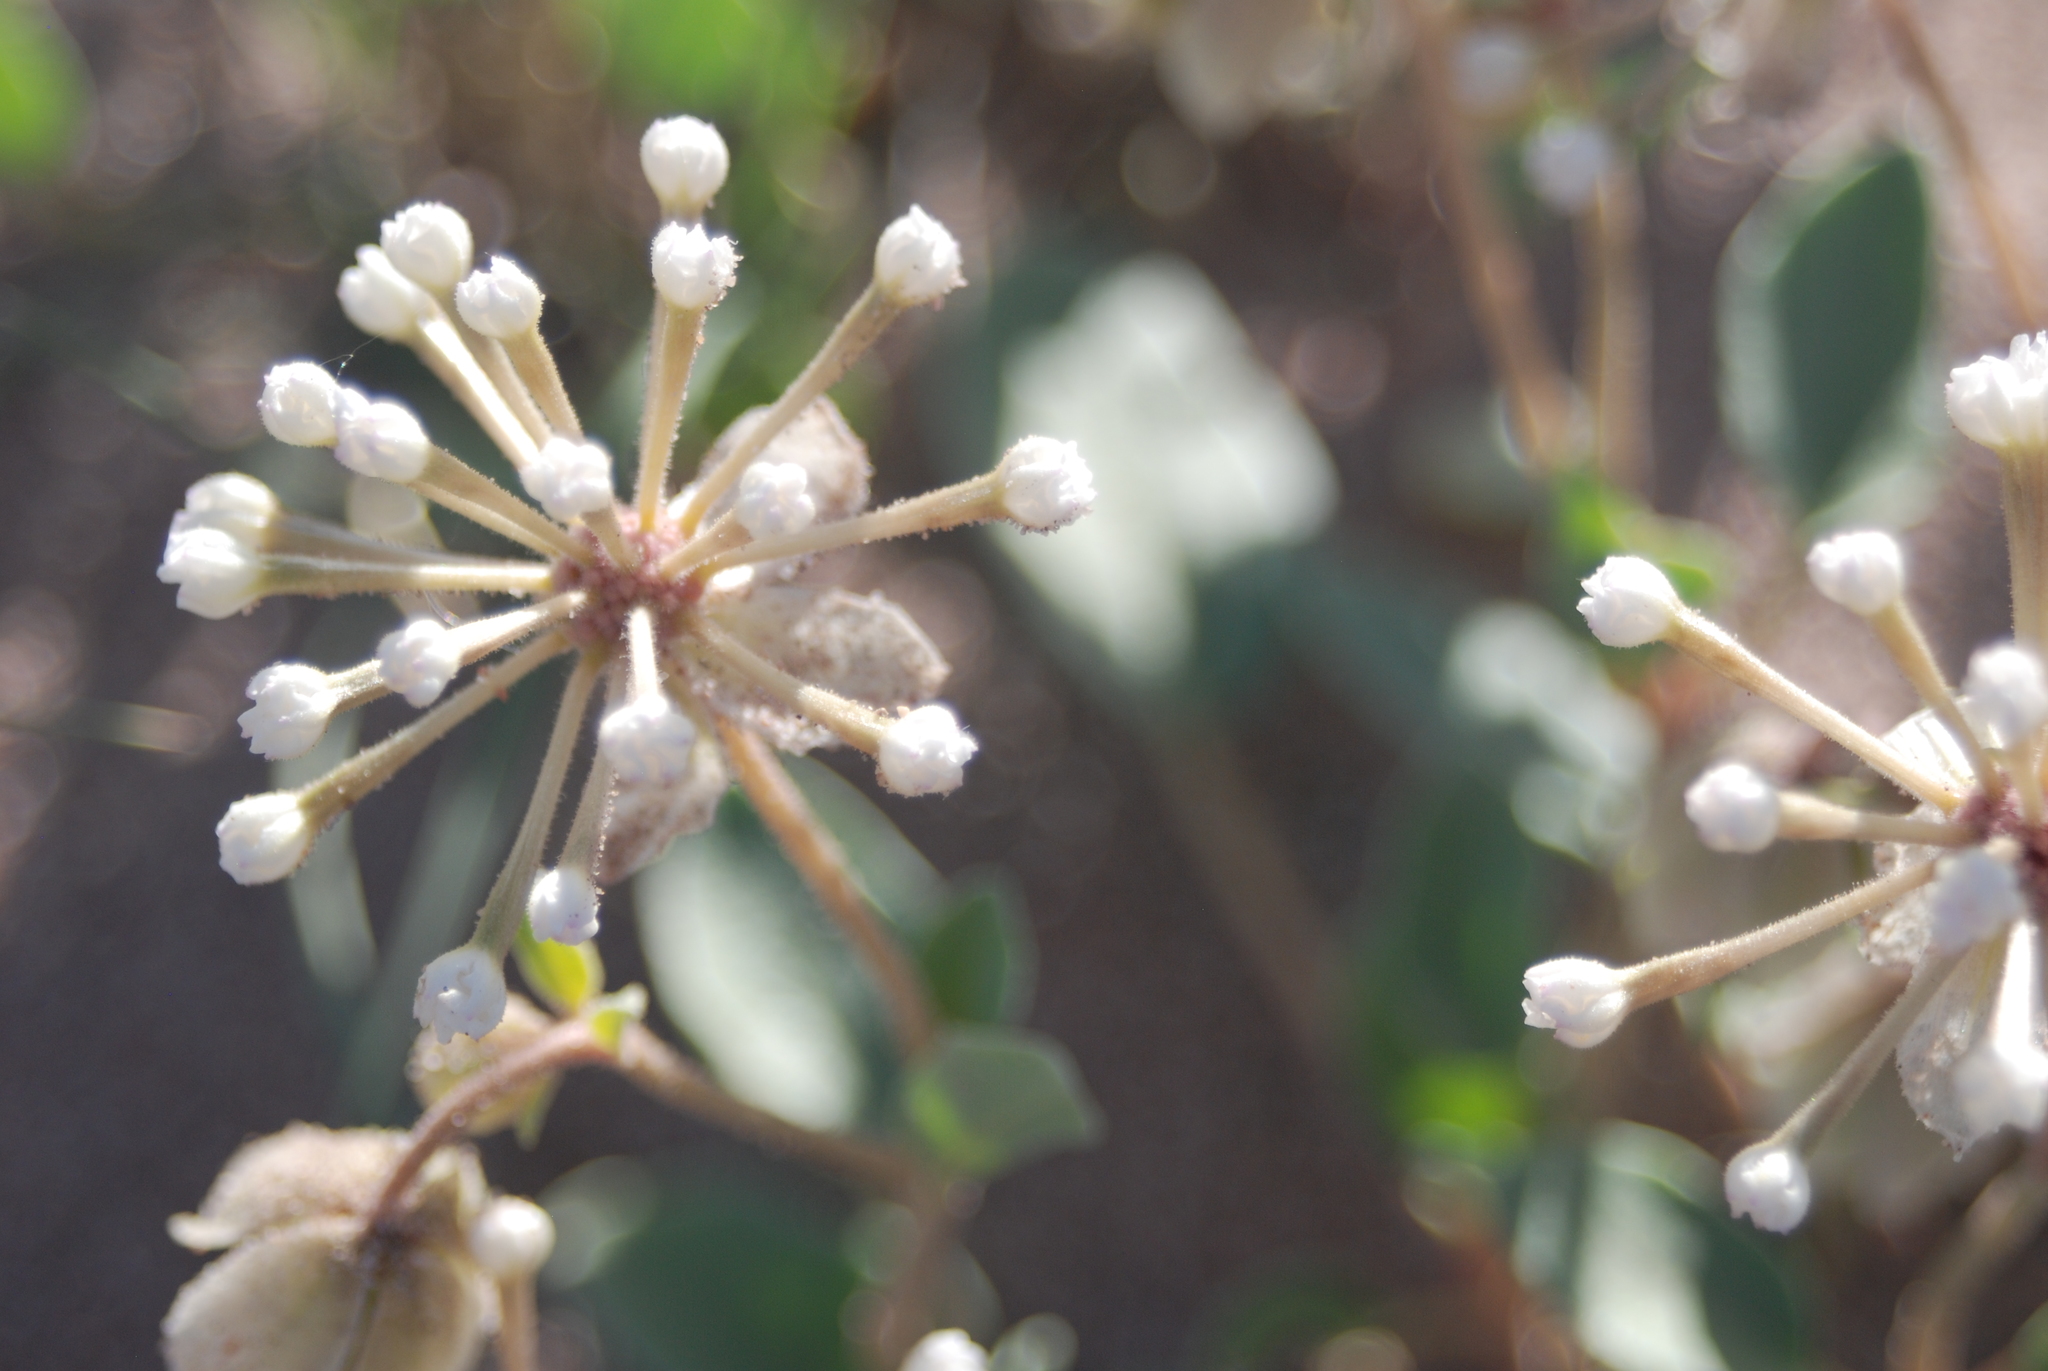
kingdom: Plantae
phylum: Tracheophyta
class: Magnoliopsida
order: Caryophyllales
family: Nyctaginaceae
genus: Abronia
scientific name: Abronia elliptica
